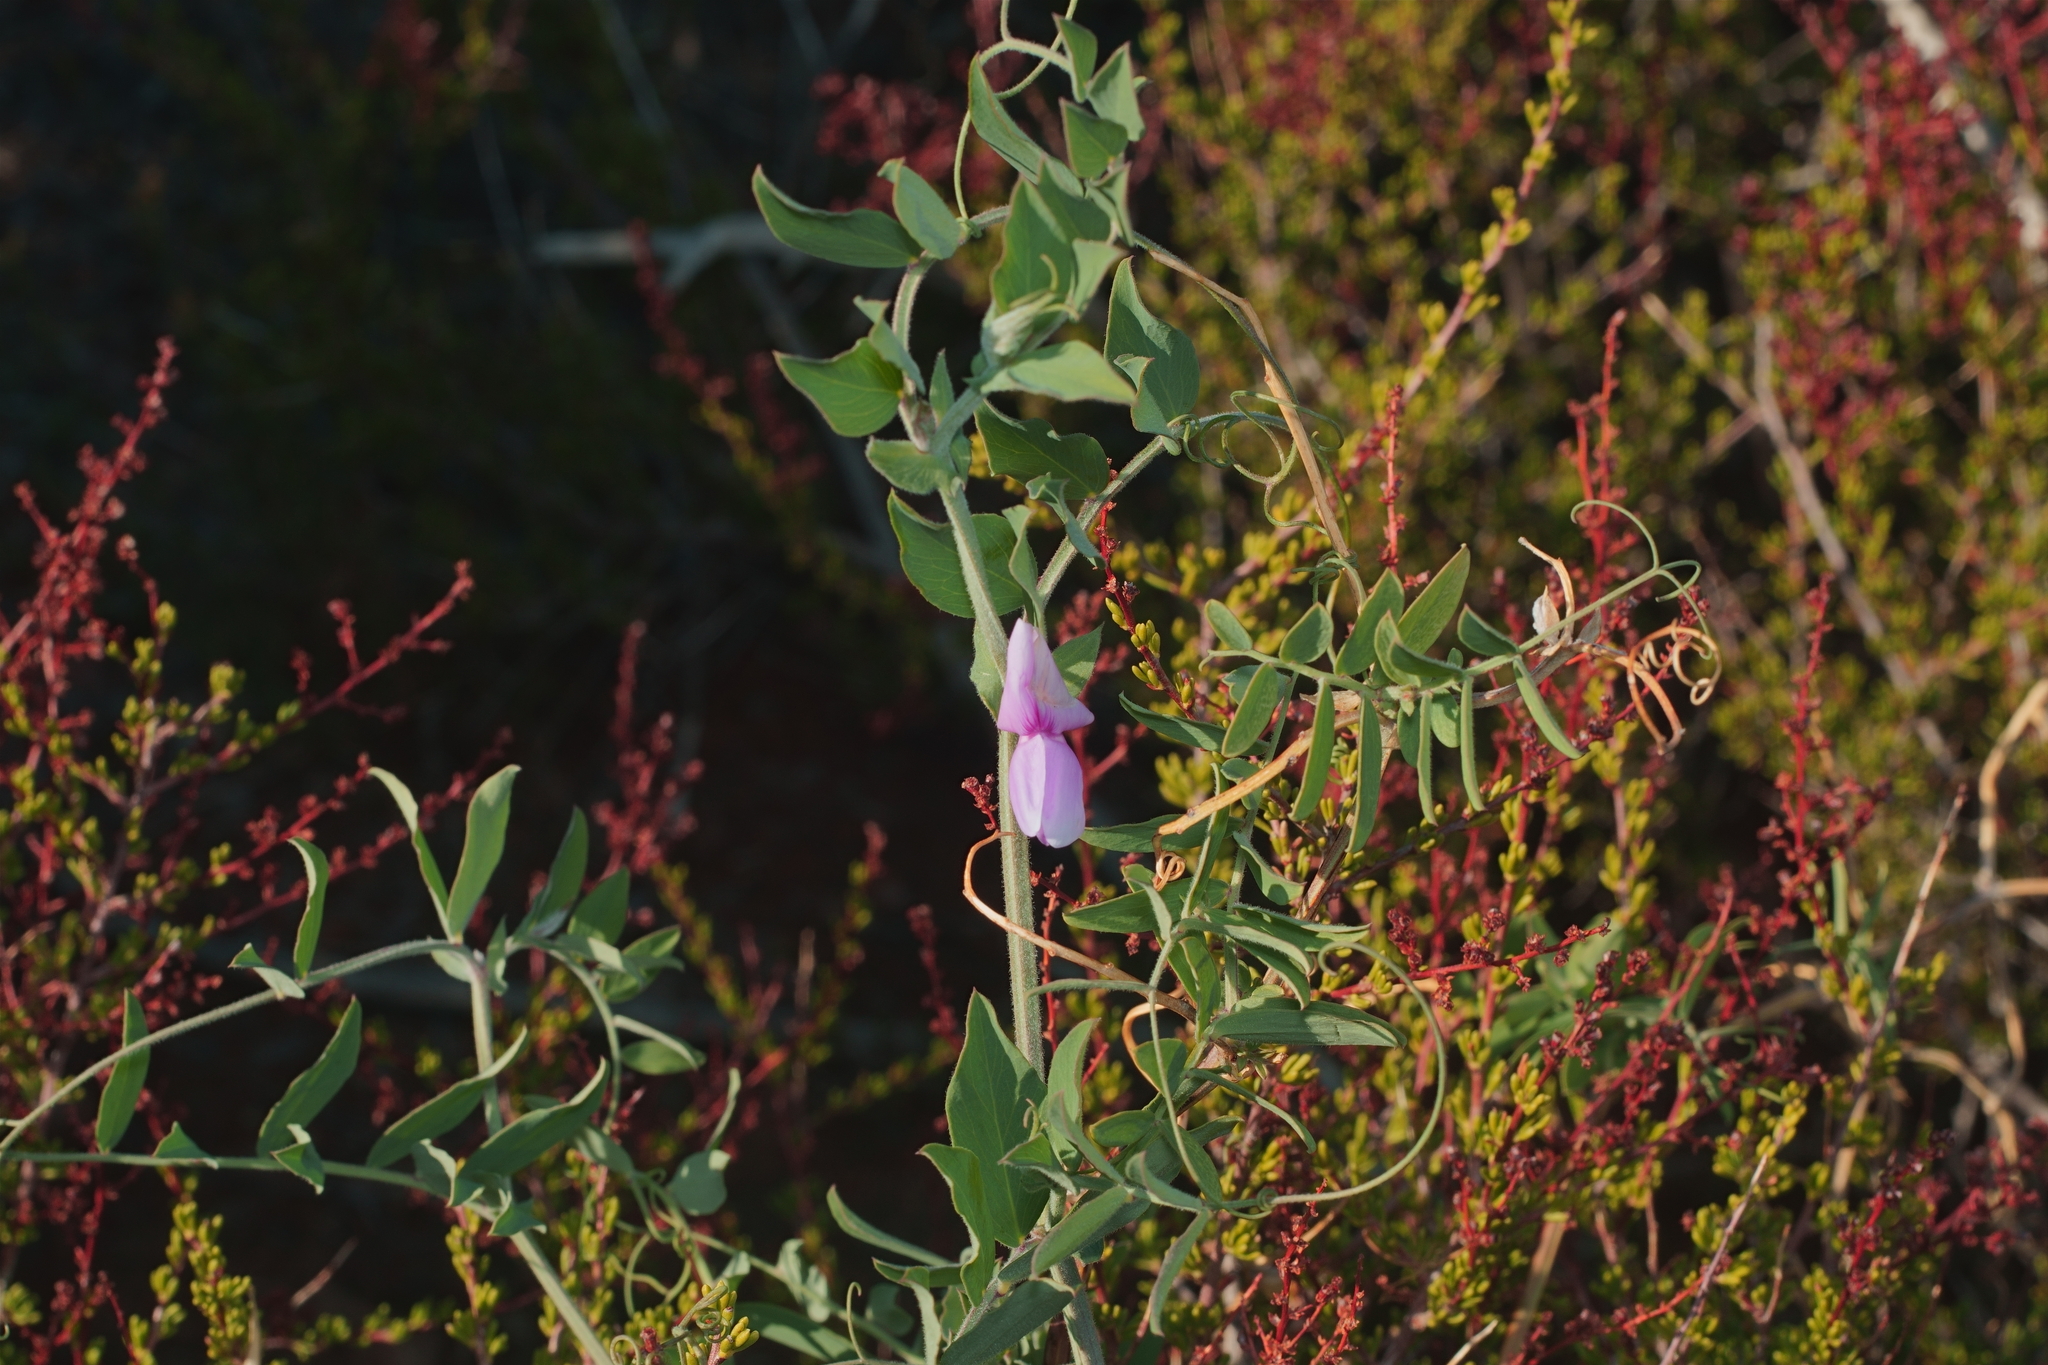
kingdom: Plantae
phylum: Tracheophyta
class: Magnoliopsida
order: Fabales
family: Fabaceae
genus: Lathyrus
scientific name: Lathyrus vestitus
